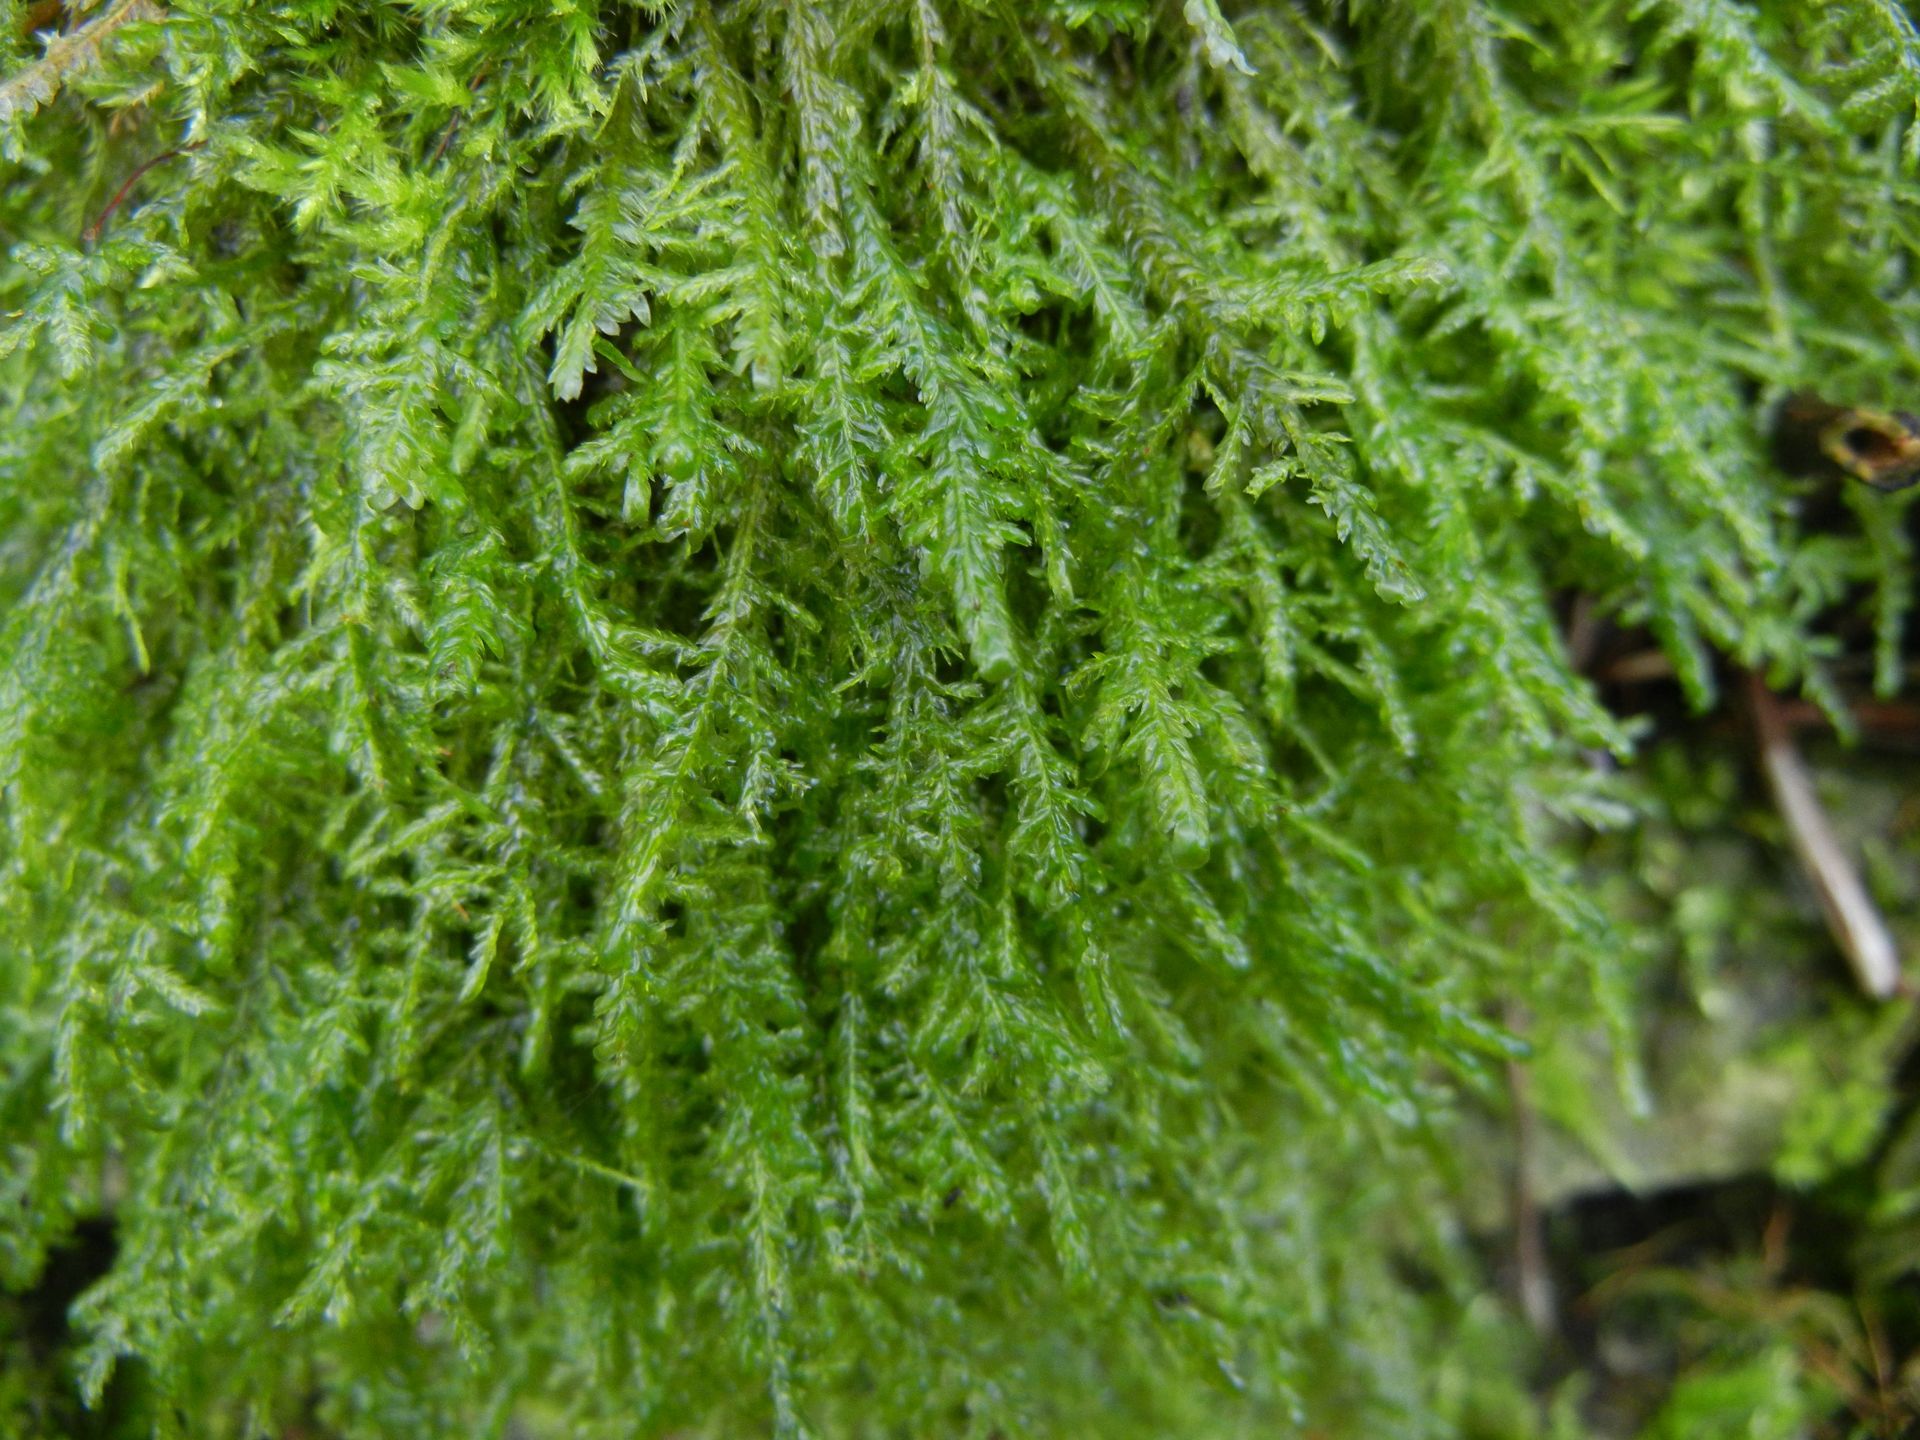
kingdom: Plantae
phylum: Bryophyta
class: Bryopsida
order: Hypnales
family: Neckeraceae
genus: Alleniella
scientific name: Alleniella complanata
